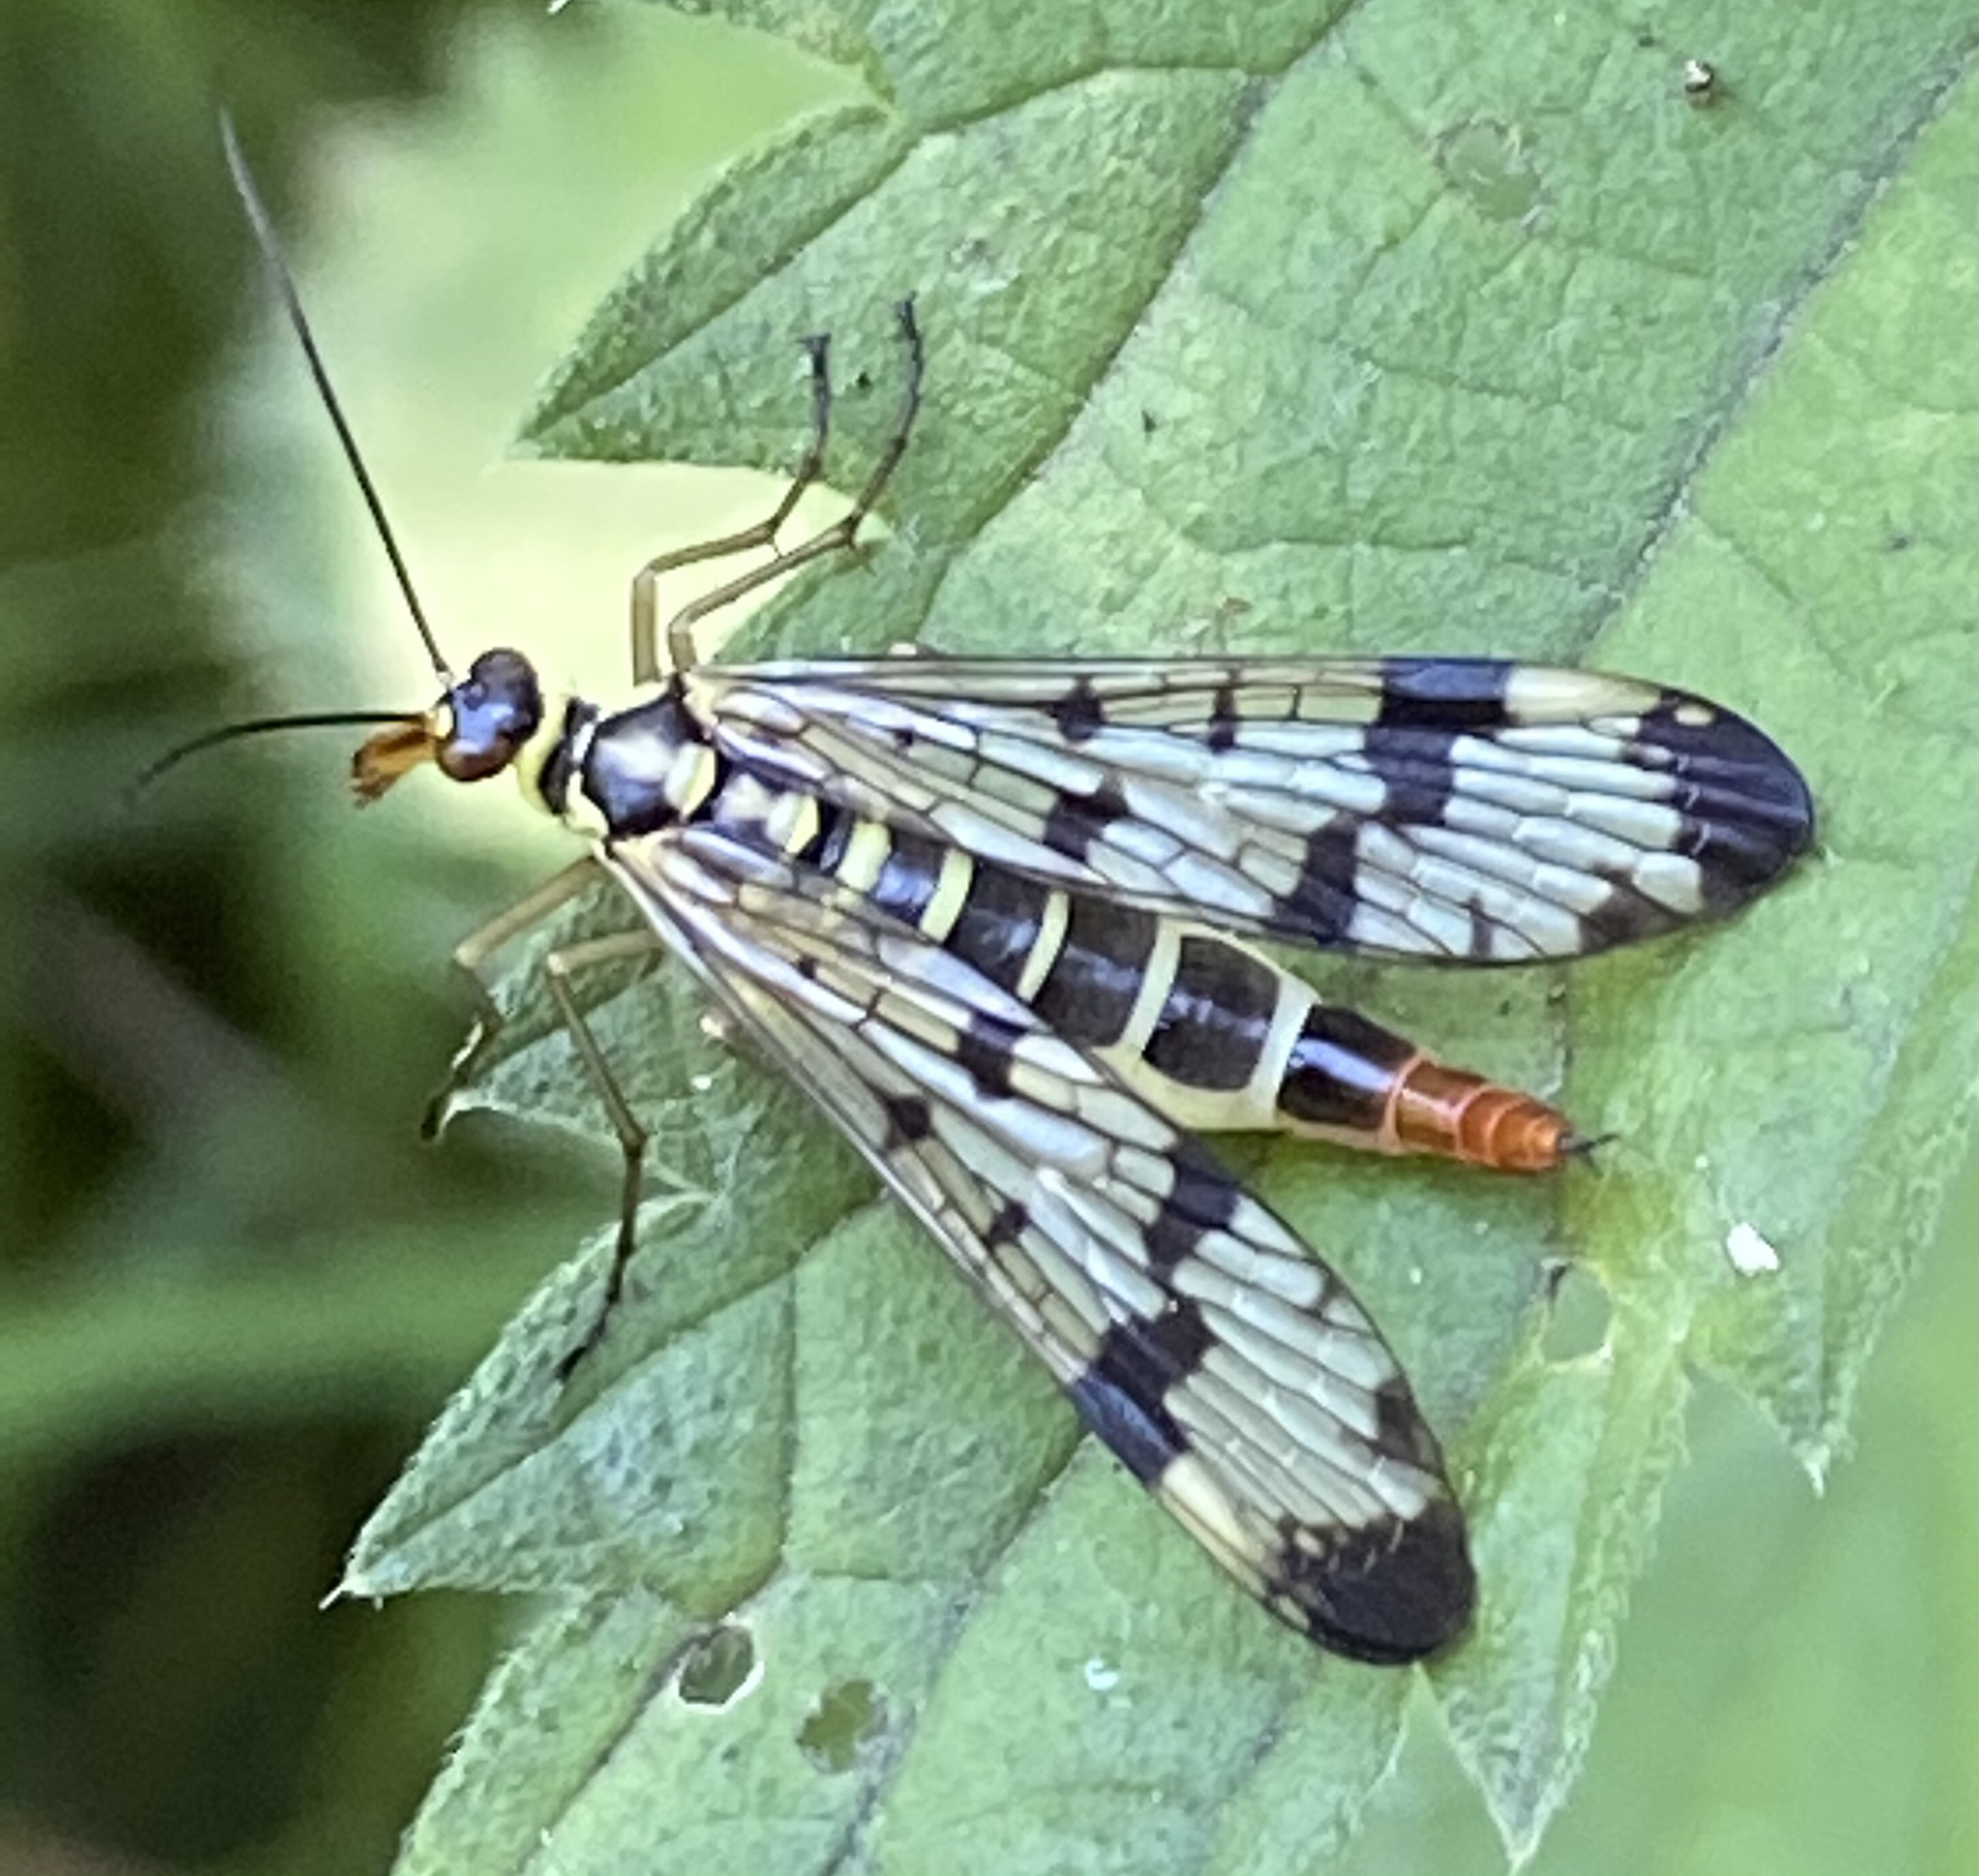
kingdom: Animalia
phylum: Arthropoda
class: Insecta
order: Mecoptera
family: Panorpidae
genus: Panorpa
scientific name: Panorpa communis
